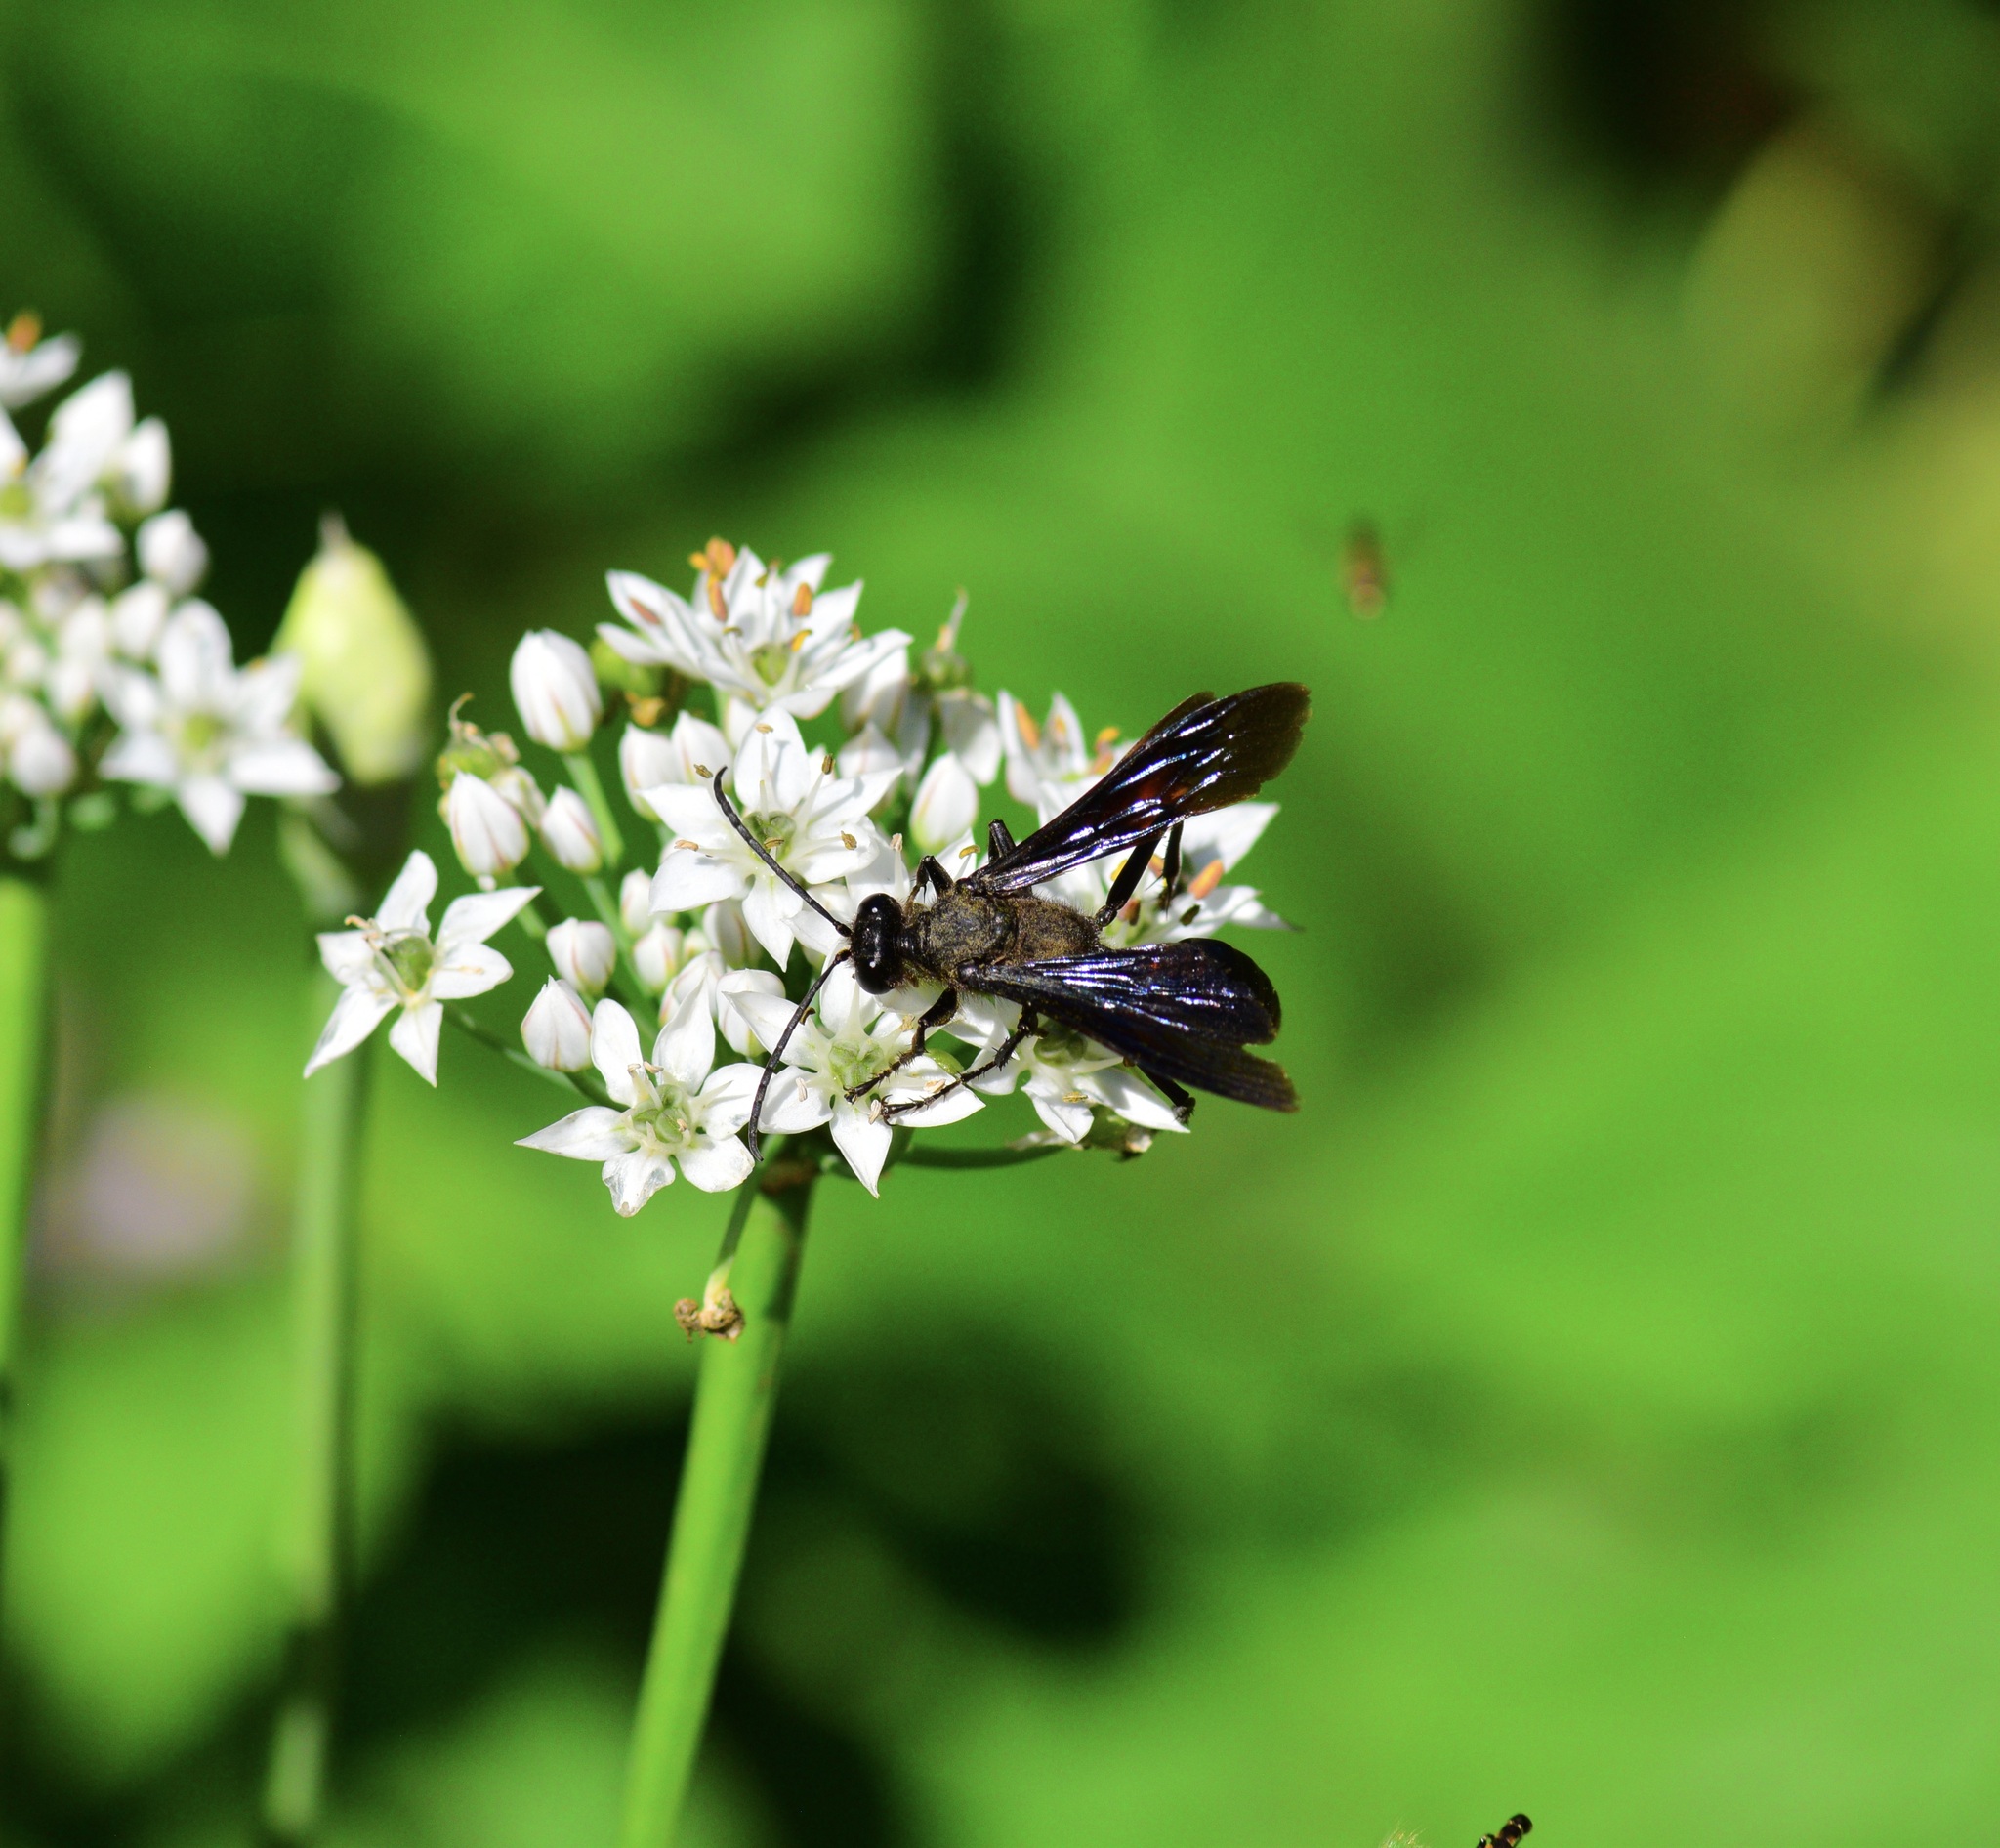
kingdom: Animalia
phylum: Arthropoda
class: Insecta
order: Hymenoptera
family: Sphecidae
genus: Sphex
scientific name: Sphex pensylvanicus
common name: Great black digger wasp
